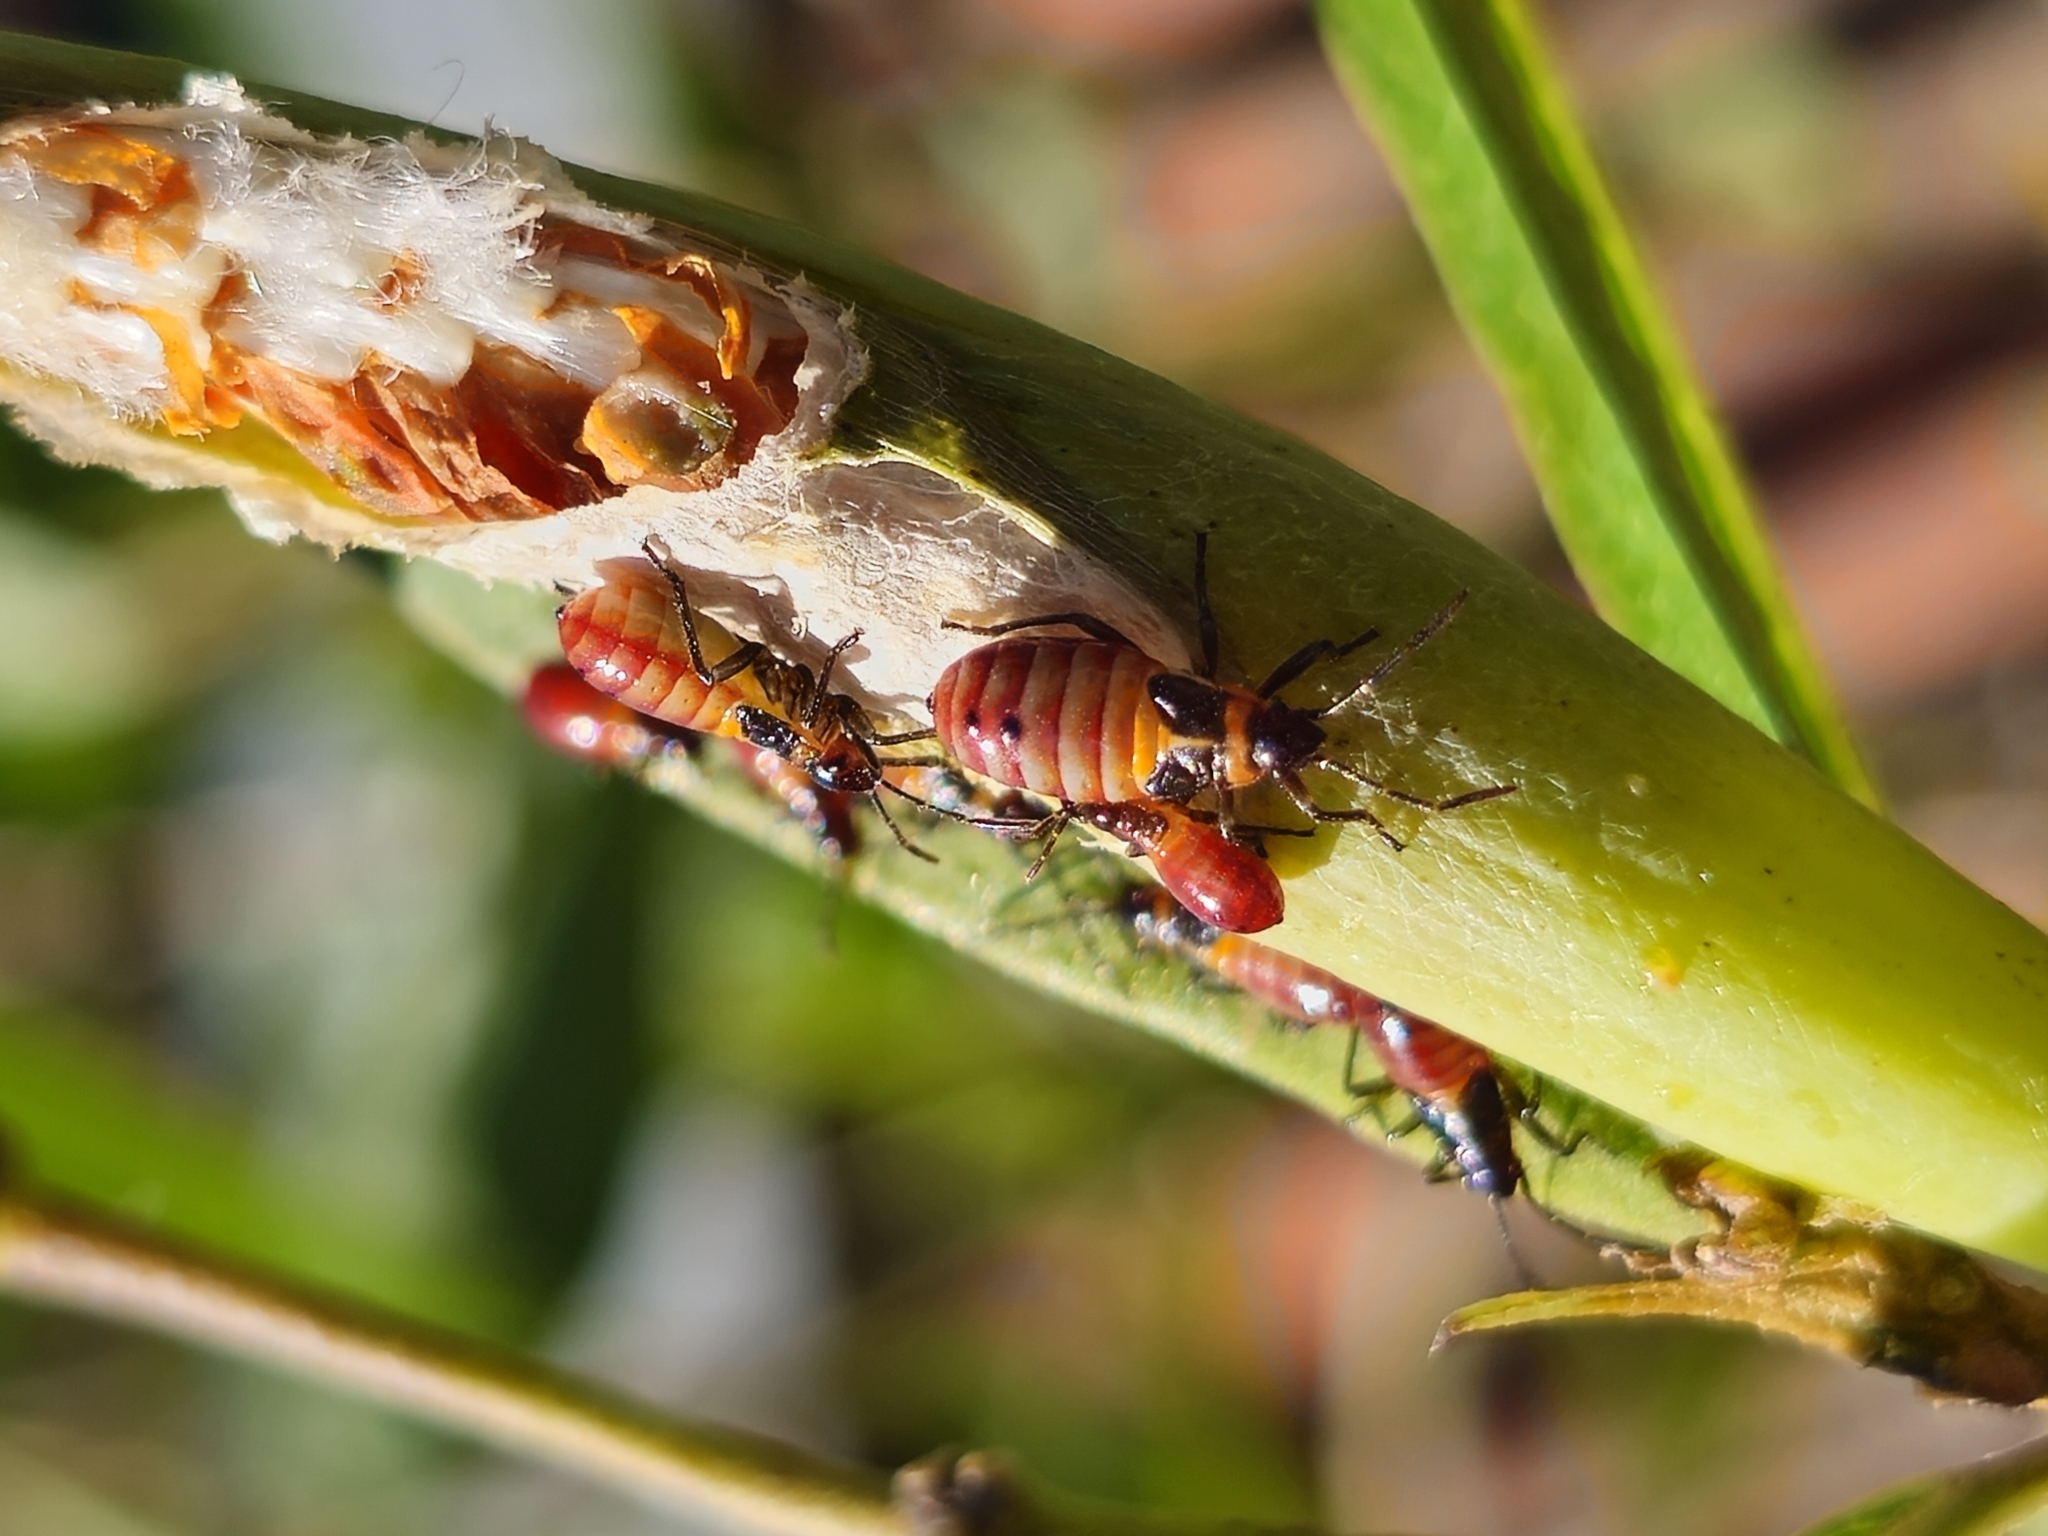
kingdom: Animalia
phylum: Arthropoda
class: Insecta
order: Hemiptera
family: Lygaeidae
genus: Oncopeltus
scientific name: Oncopeltus unifasciatellus
